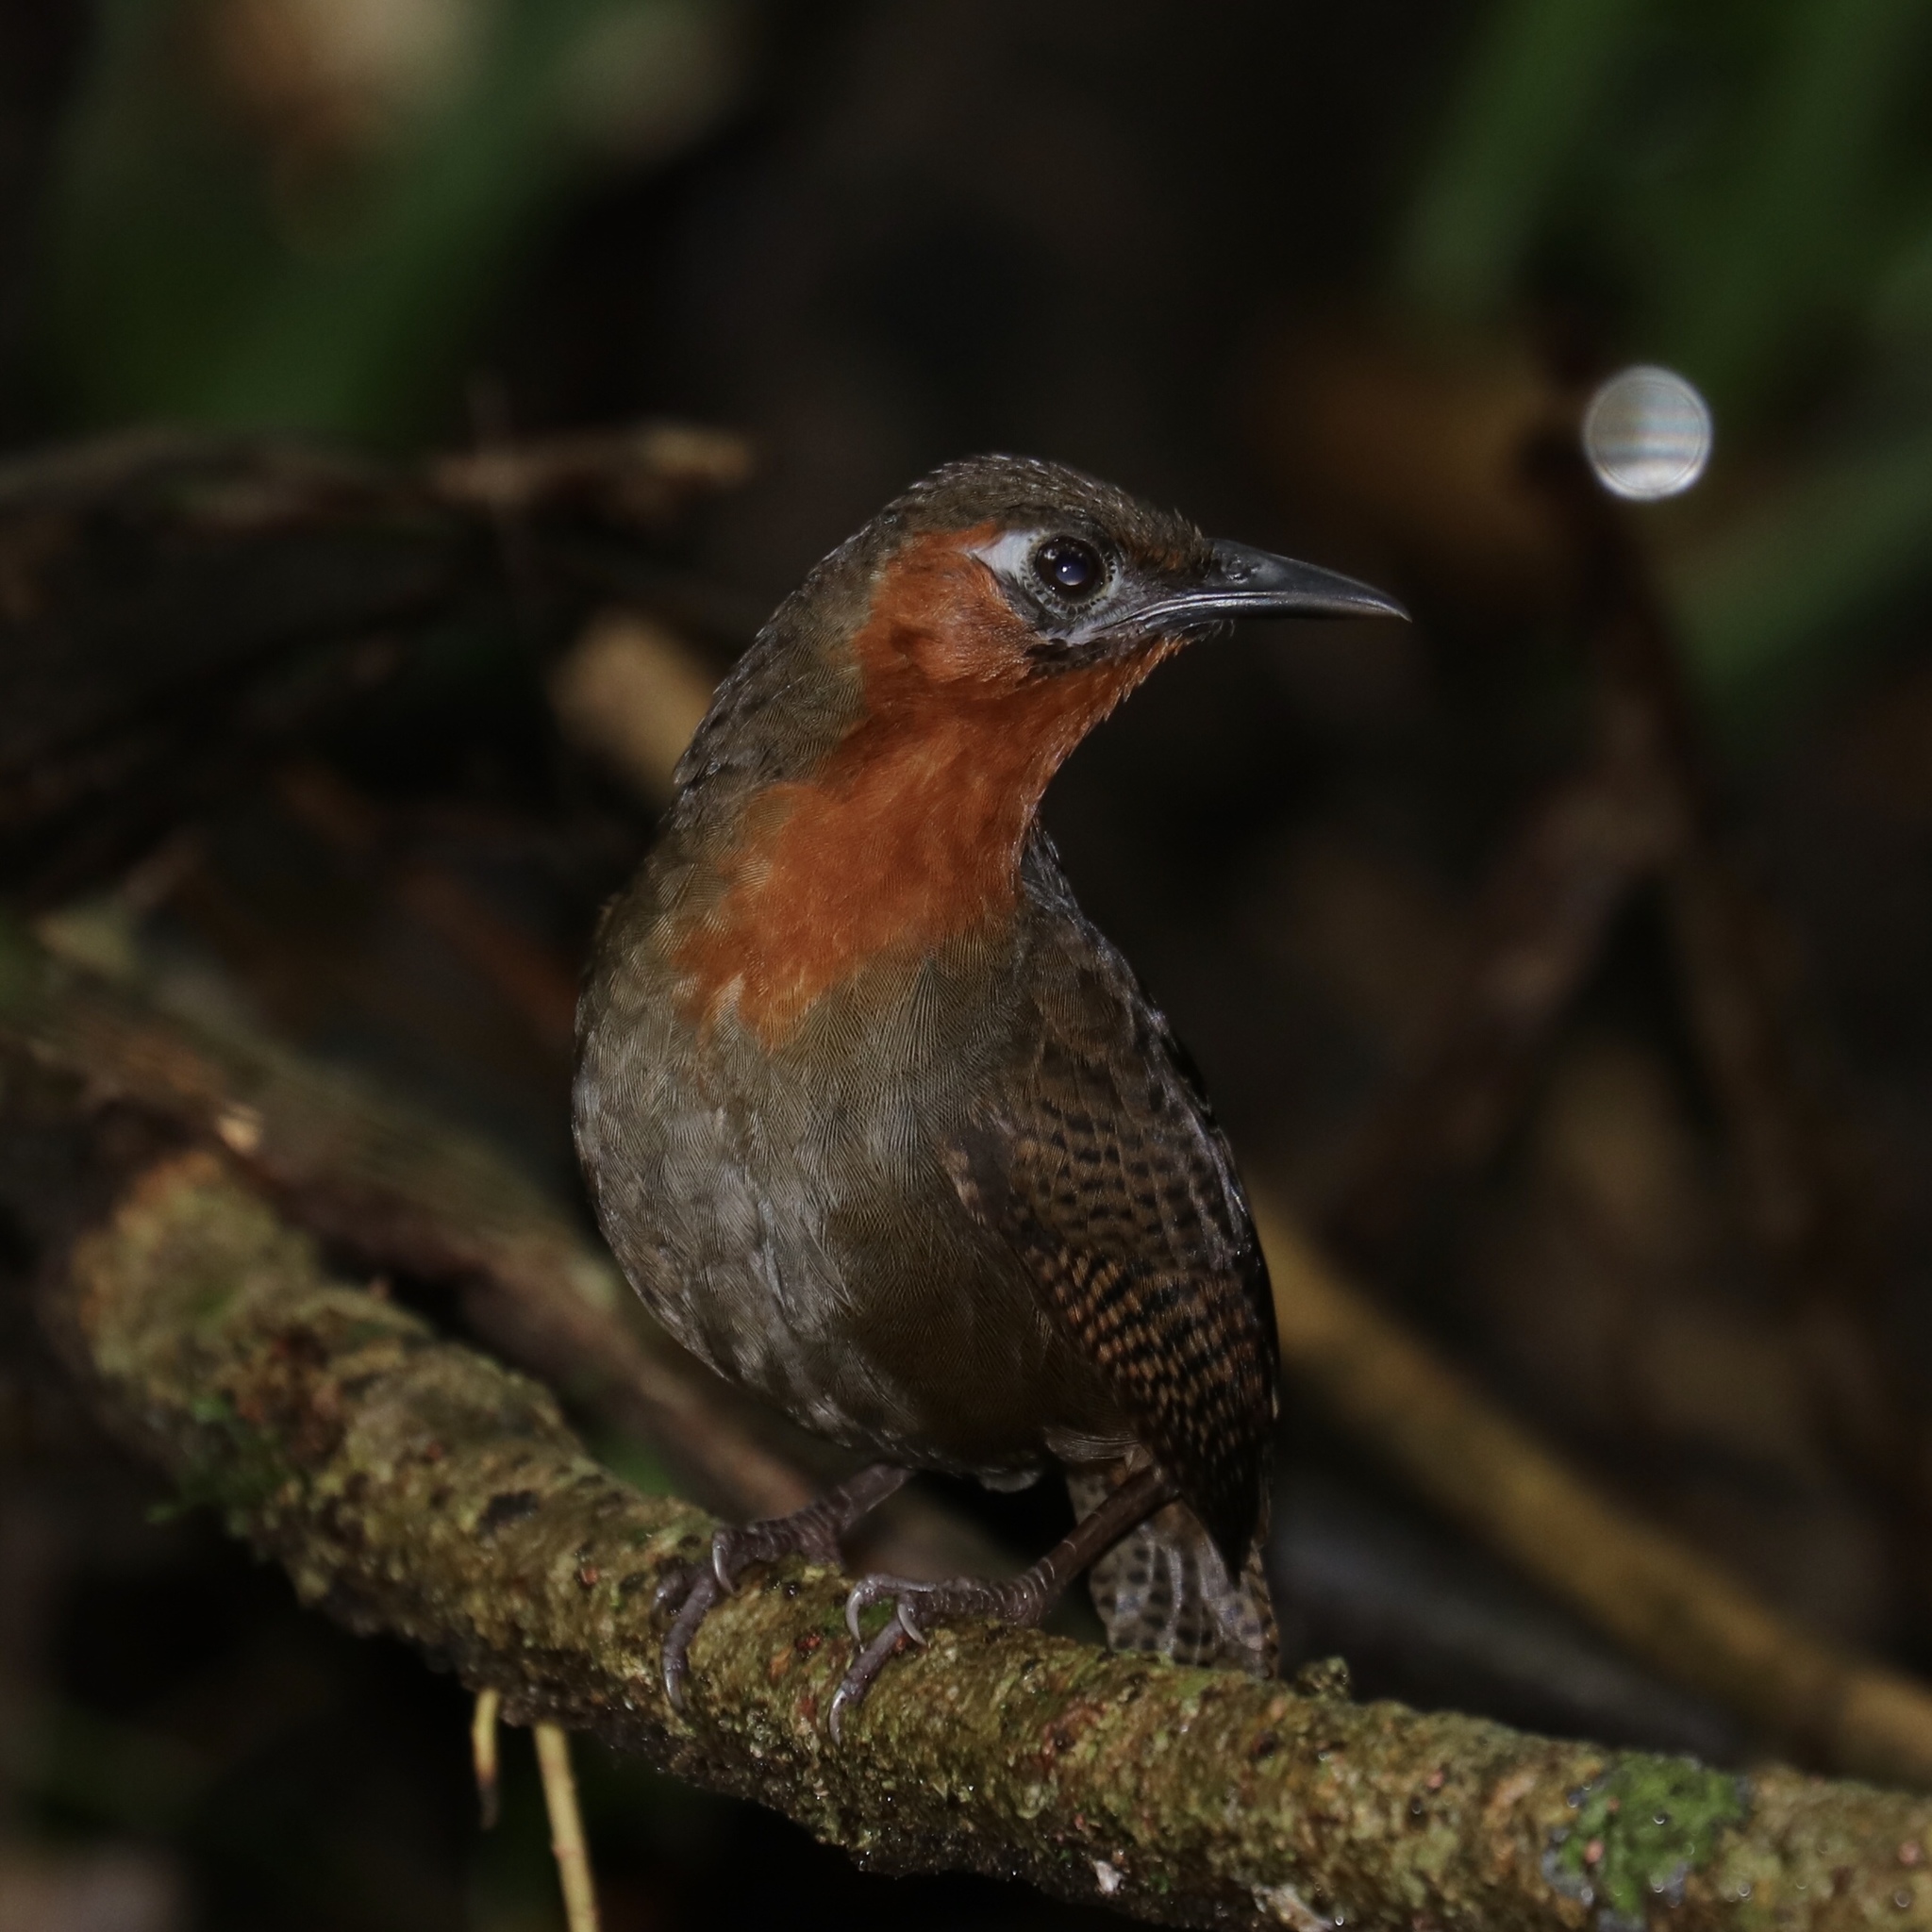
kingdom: Animalia
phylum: Chordata
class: Aves
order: Passeriformes
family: Troglodytidae
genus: Cyphorhinus
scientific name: Cyphorhinus phaeocephalus
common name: Song wren
